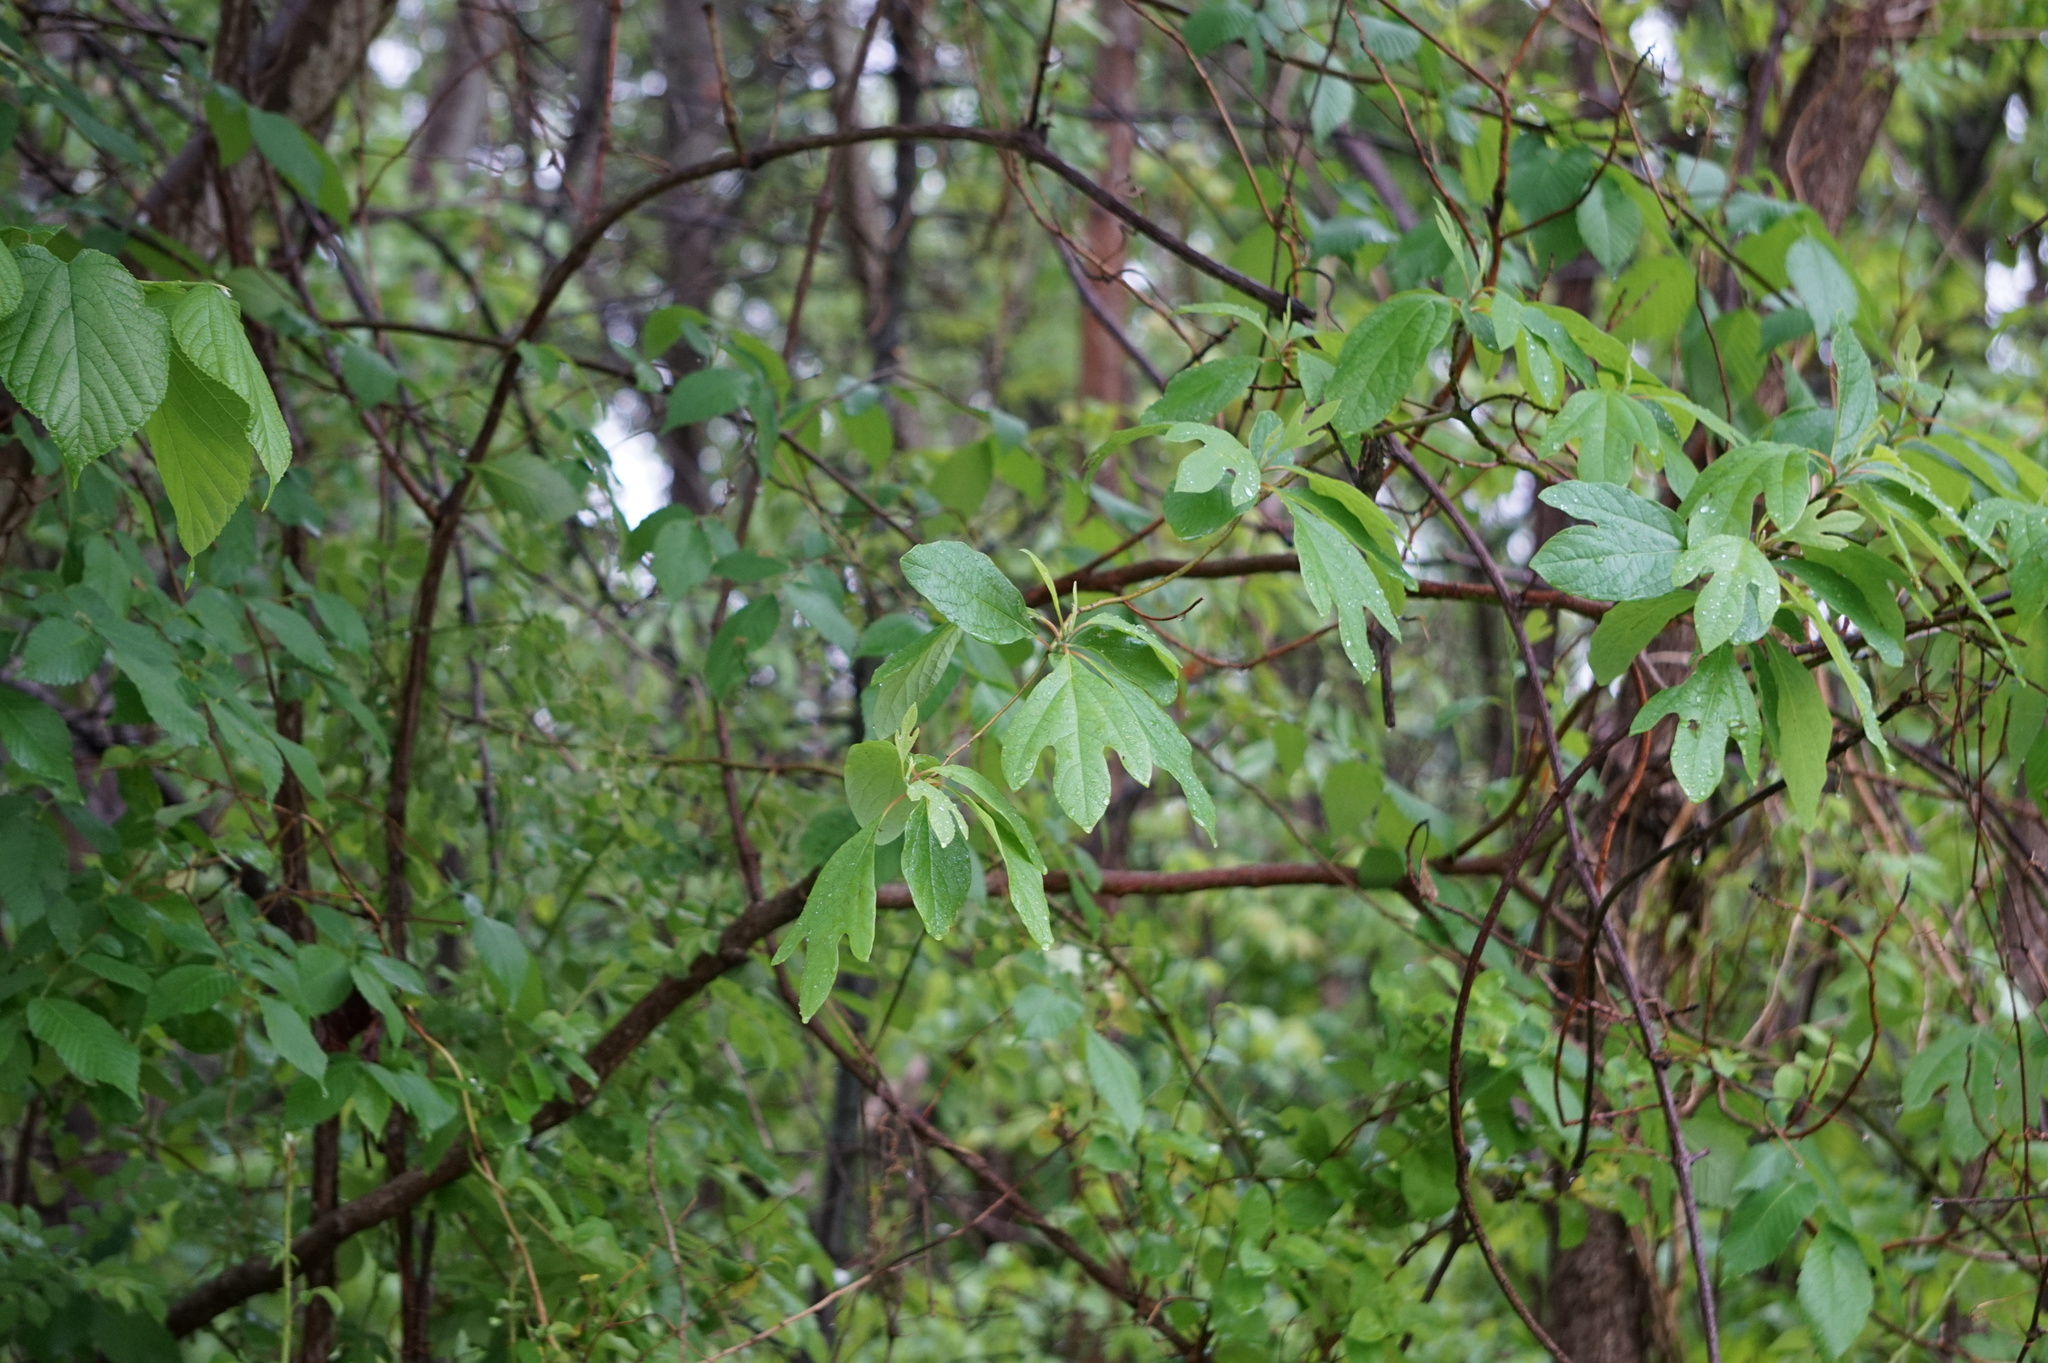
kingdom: Plantae
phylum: Tracheophyta
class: Magnoliopsida
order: Laurales
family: Lauraceae
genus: Sassafras
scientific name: Sassafras albidum
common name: Sassafras
